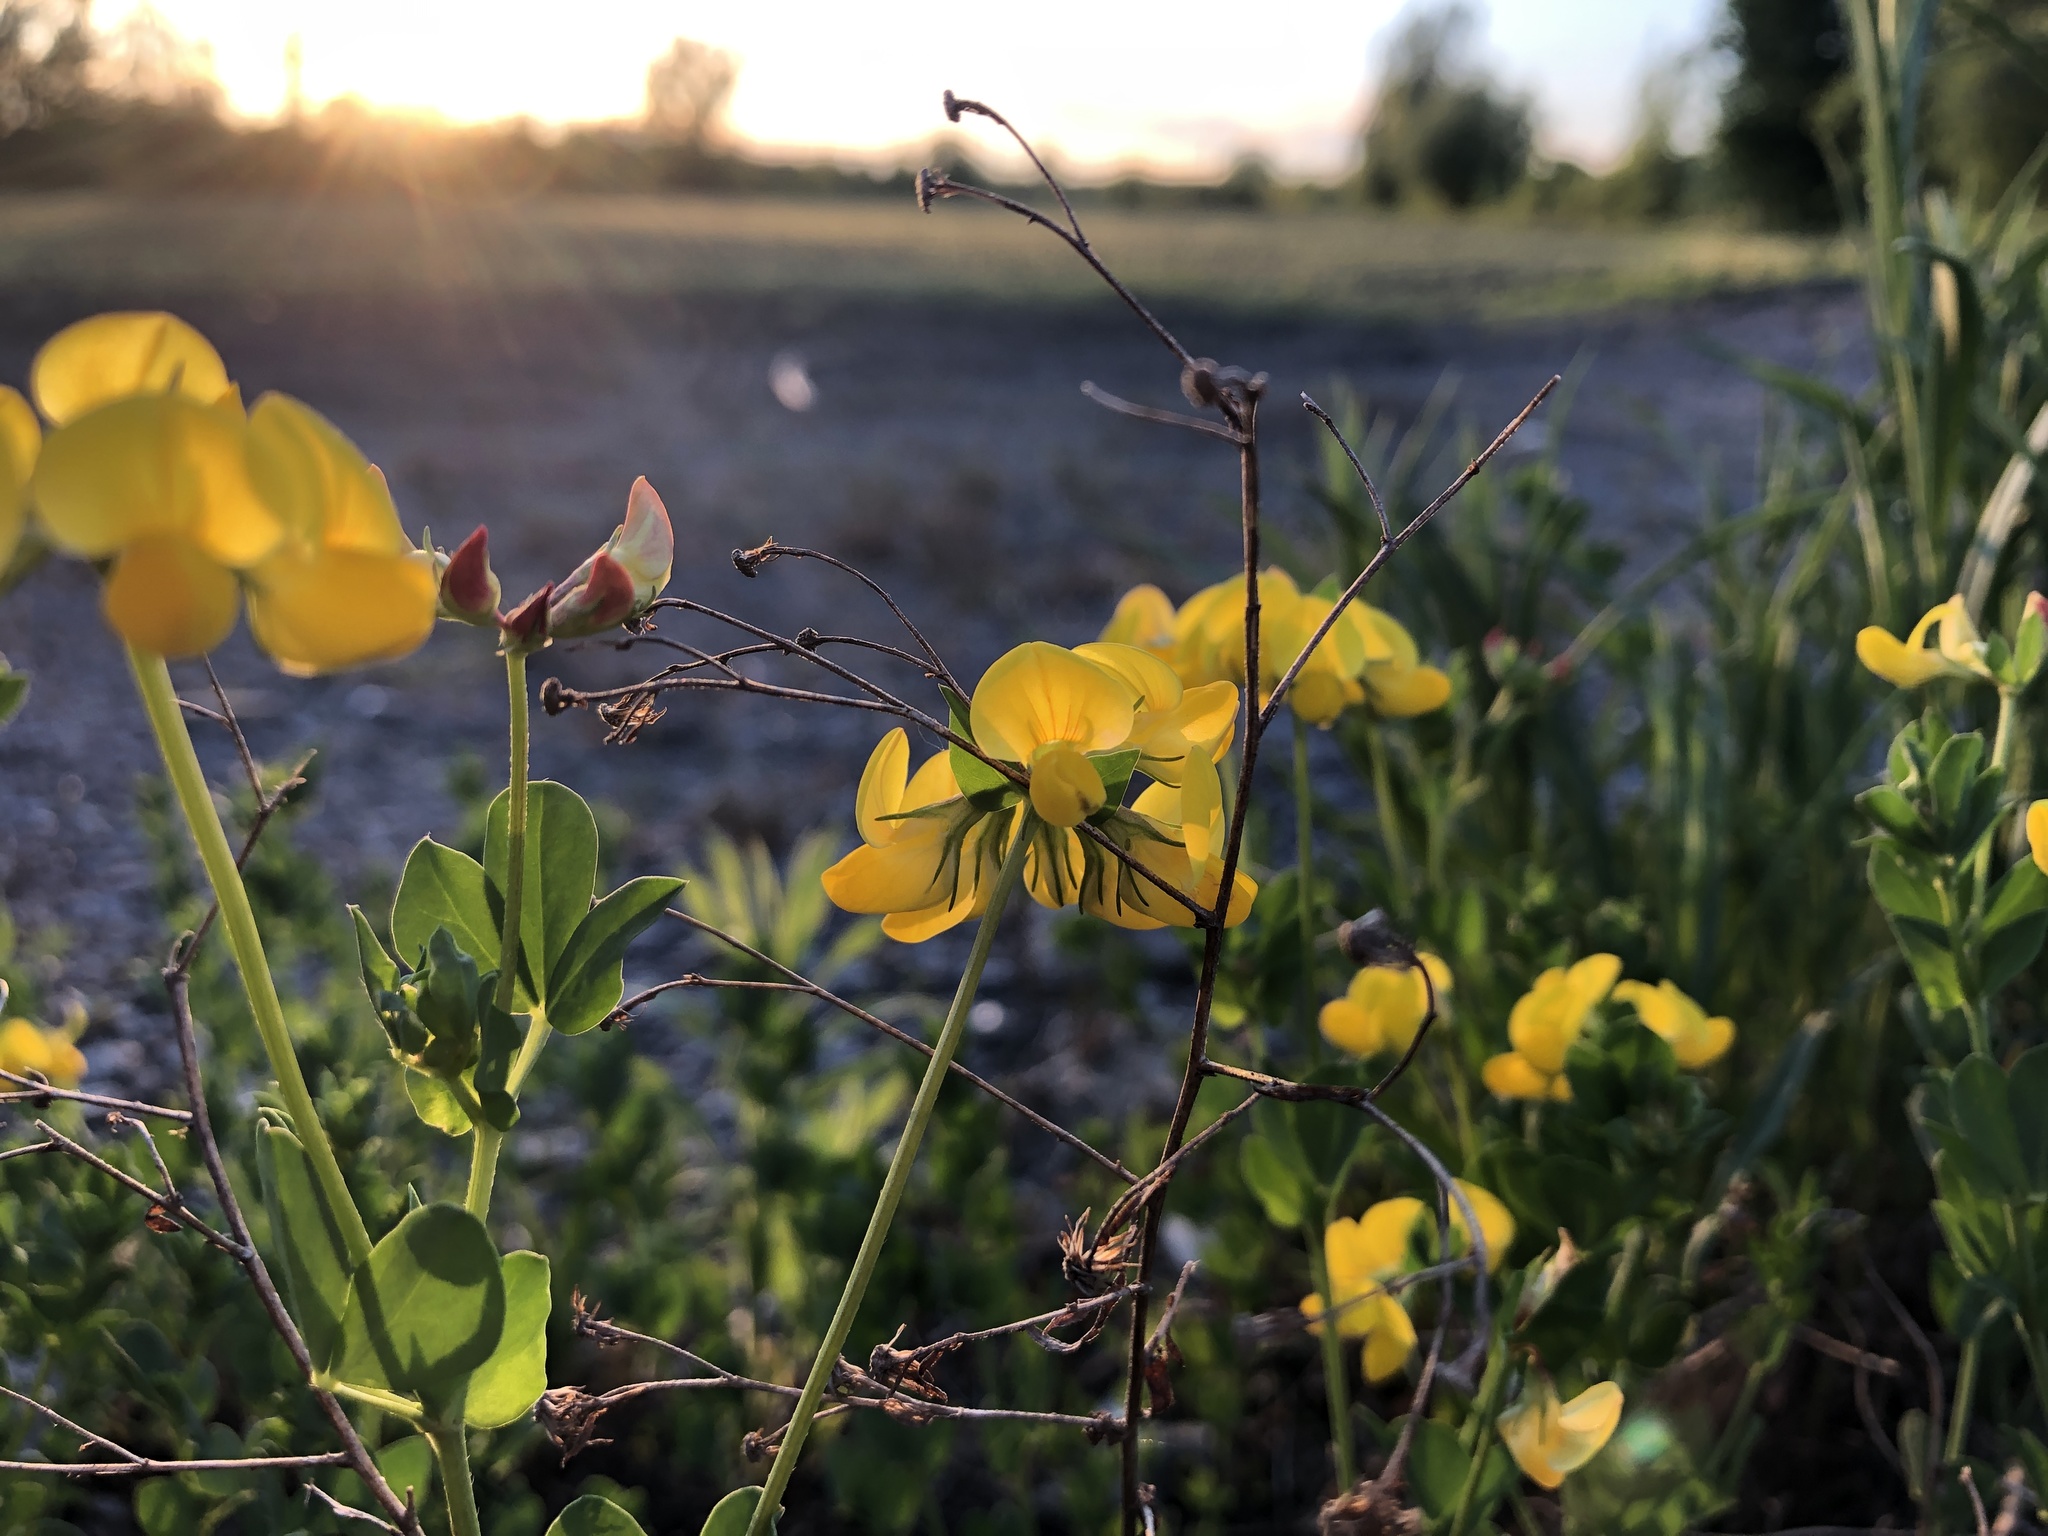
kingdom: Plantae
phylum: Tracheophyta
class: Magnoliopsida
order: Fabales
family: Fabaceae
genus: Lotus
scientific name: Lotus corniculatus
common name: Common bird's-foot-trefoil
